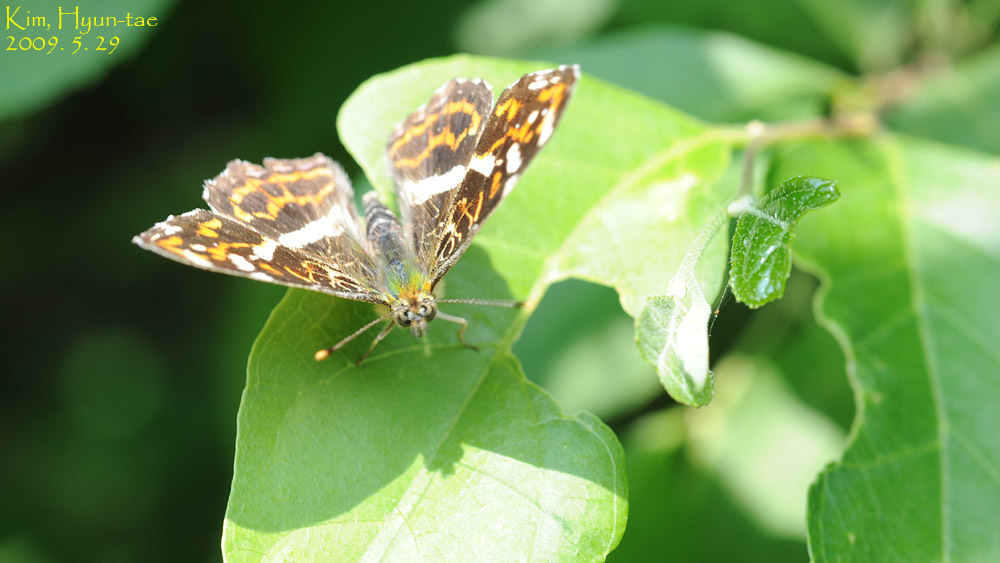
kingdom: Animalia
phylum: Arthropoda
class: Insecta
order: Lepidoptera
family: Nymphalidae
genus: Araschnia
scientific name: Araschnia burejana
